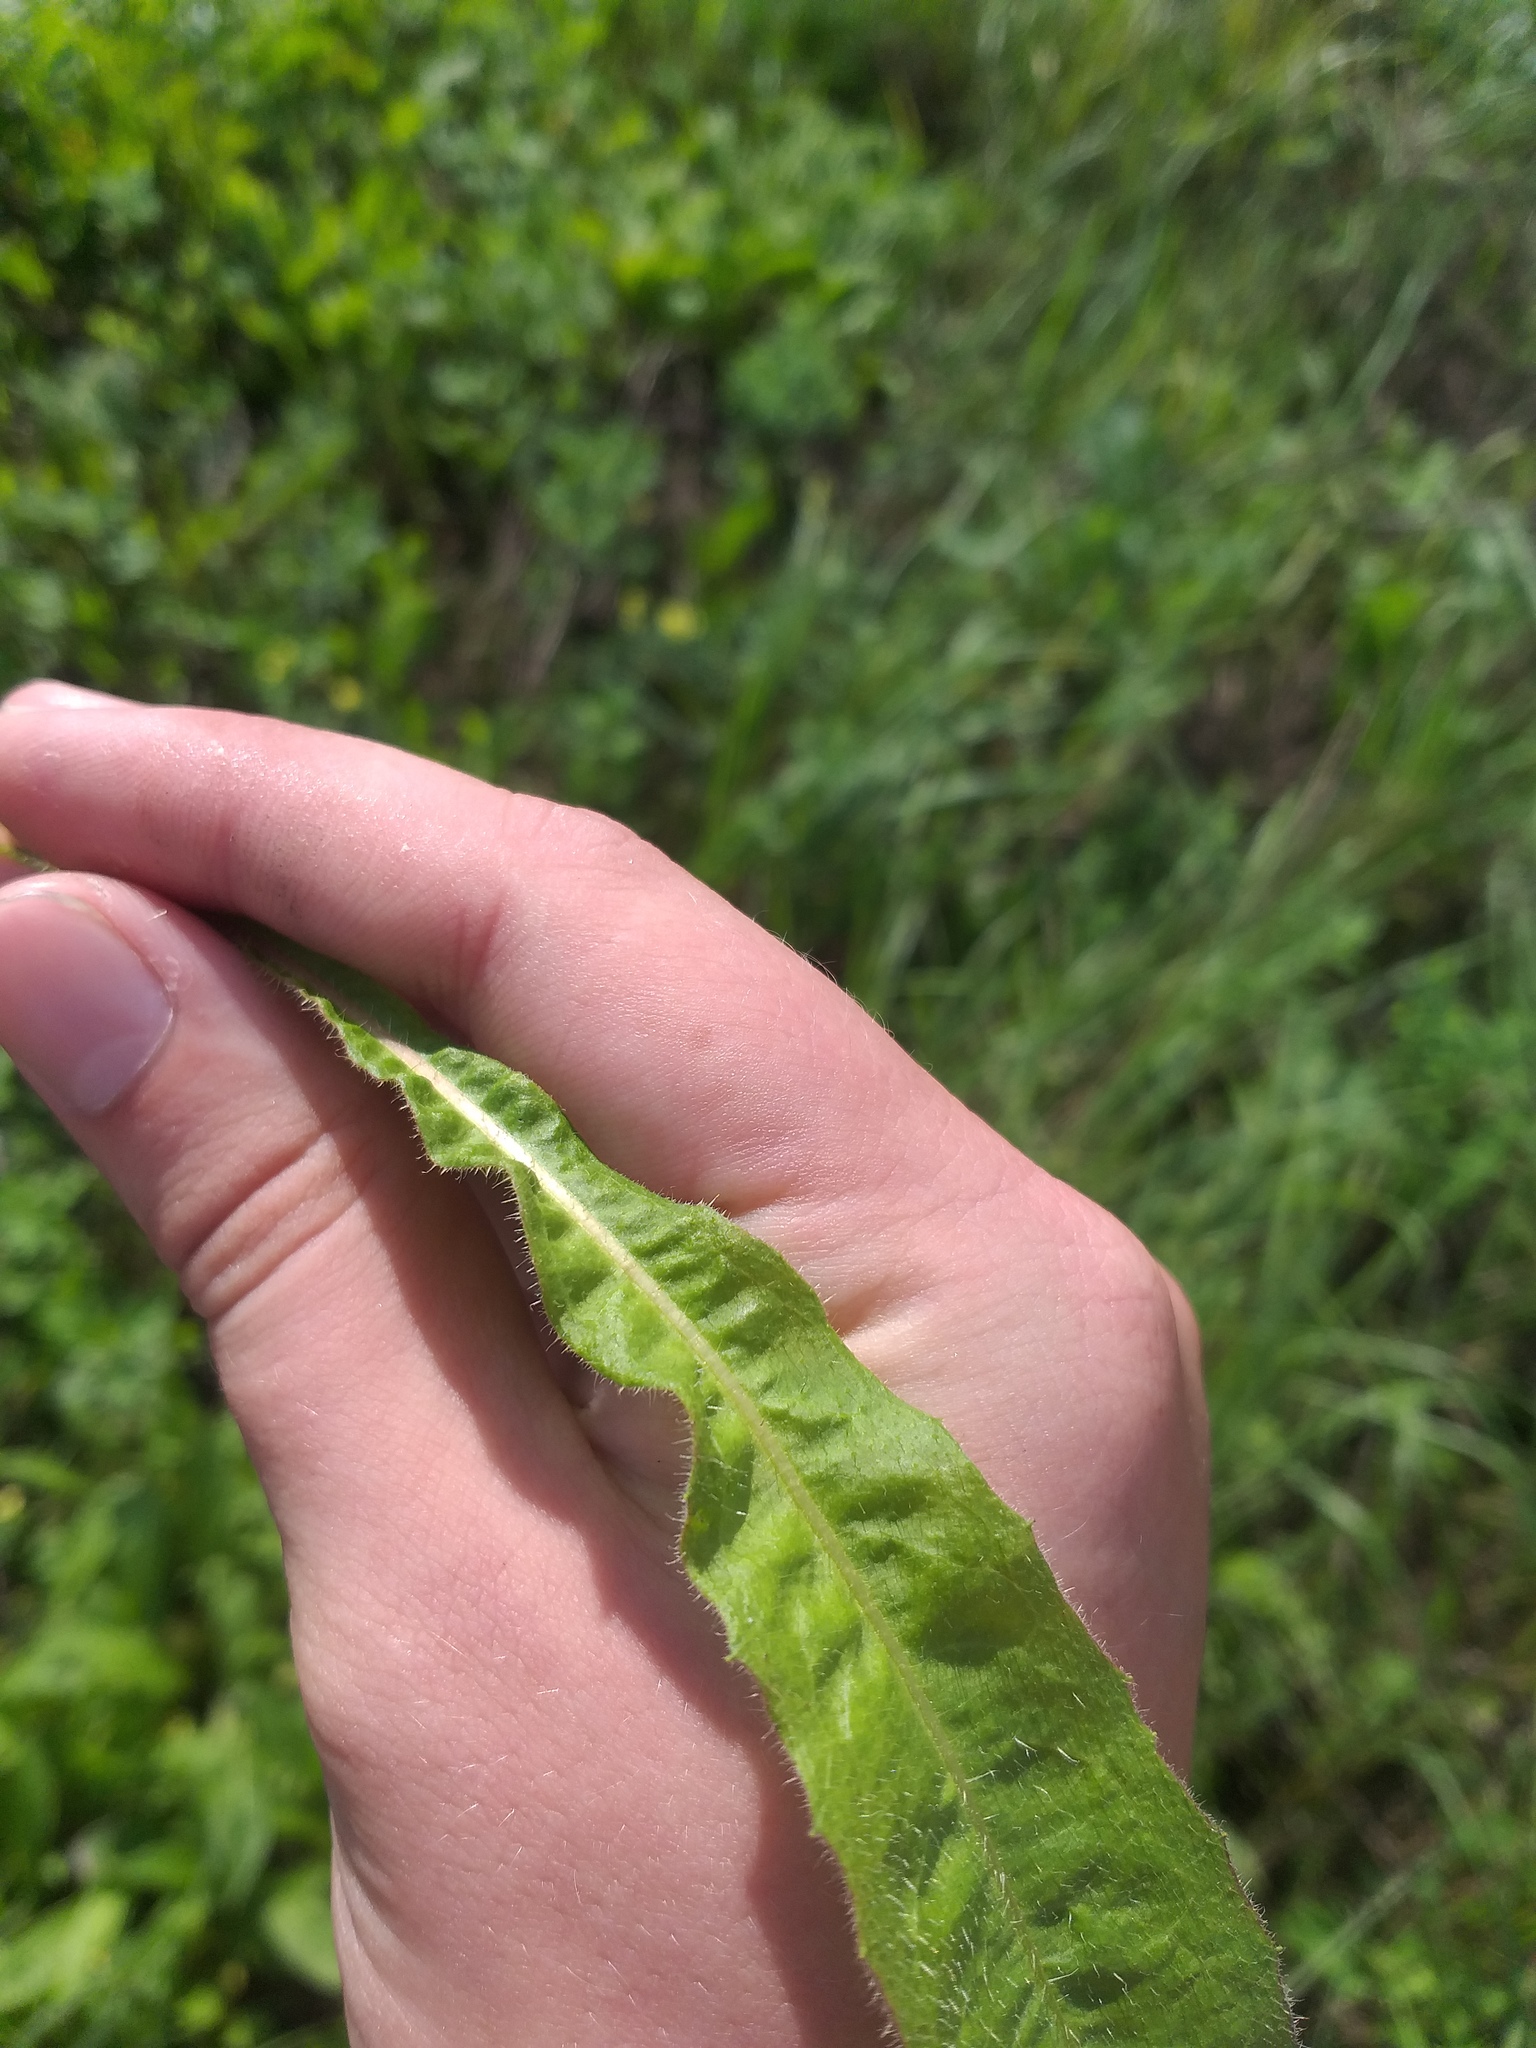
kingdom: Plantae
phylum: Tracheophyta
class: Magnoliopsida
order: Asterales
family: Asteraceae
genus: Picris
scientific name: Picris hieracioides
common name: Hawkweed oxtongue
